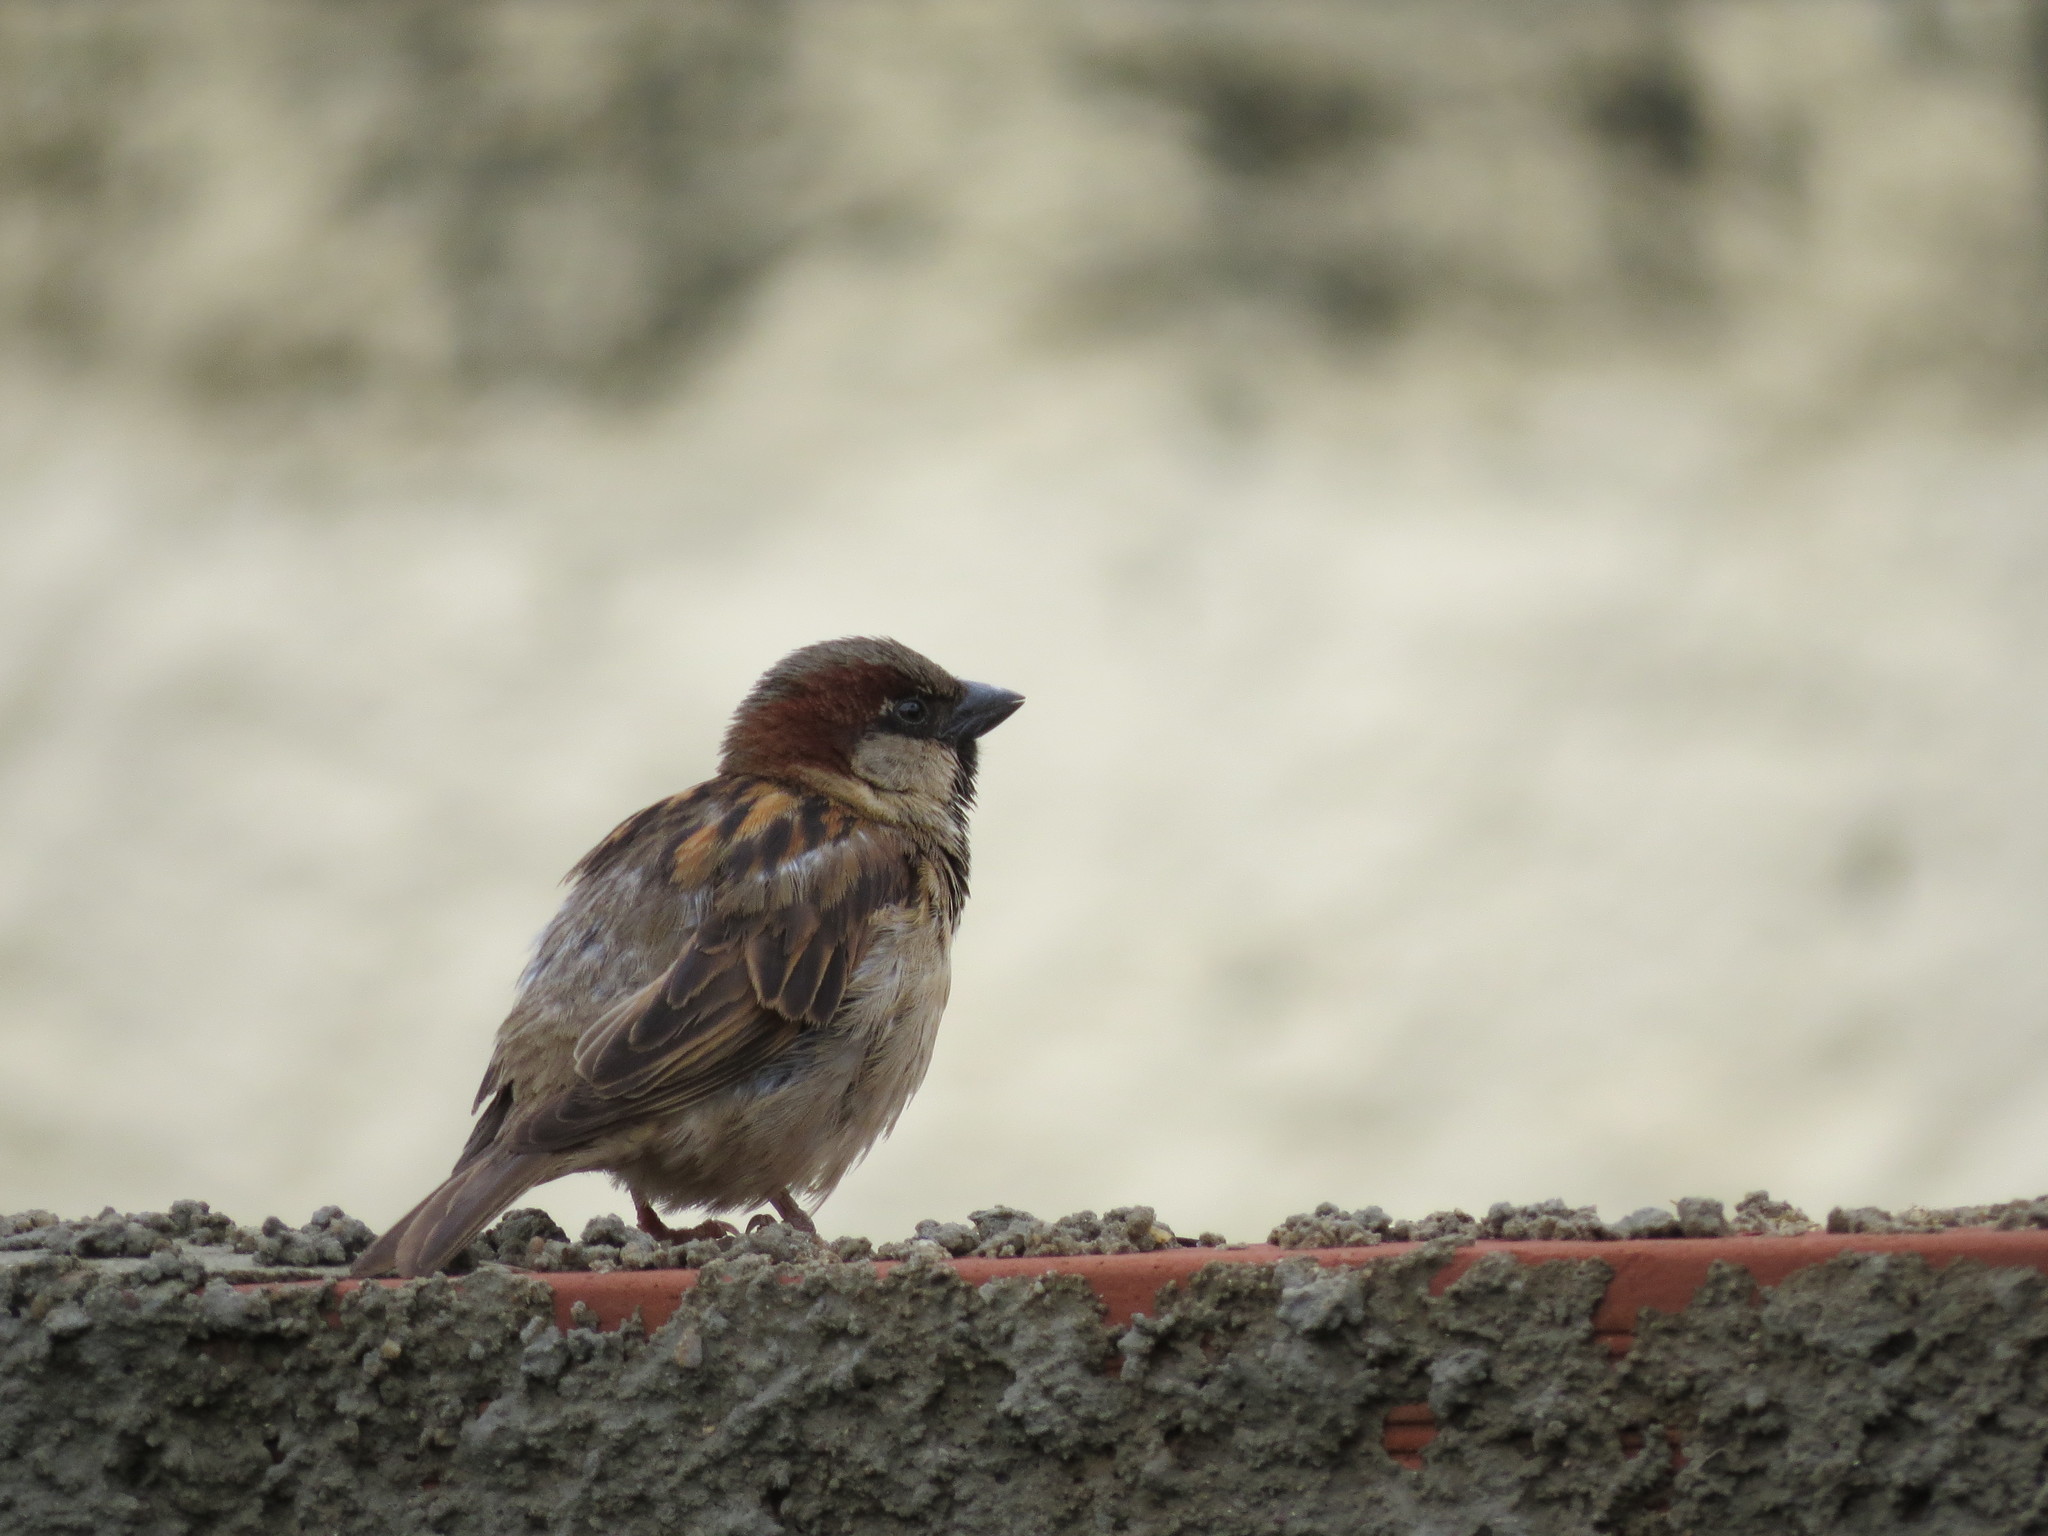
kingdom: Animalia
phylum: Chordata
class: Aves
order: Passeriformes
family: Passeridae
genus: Passer
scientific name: Passer domesticus
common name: House sparrow
